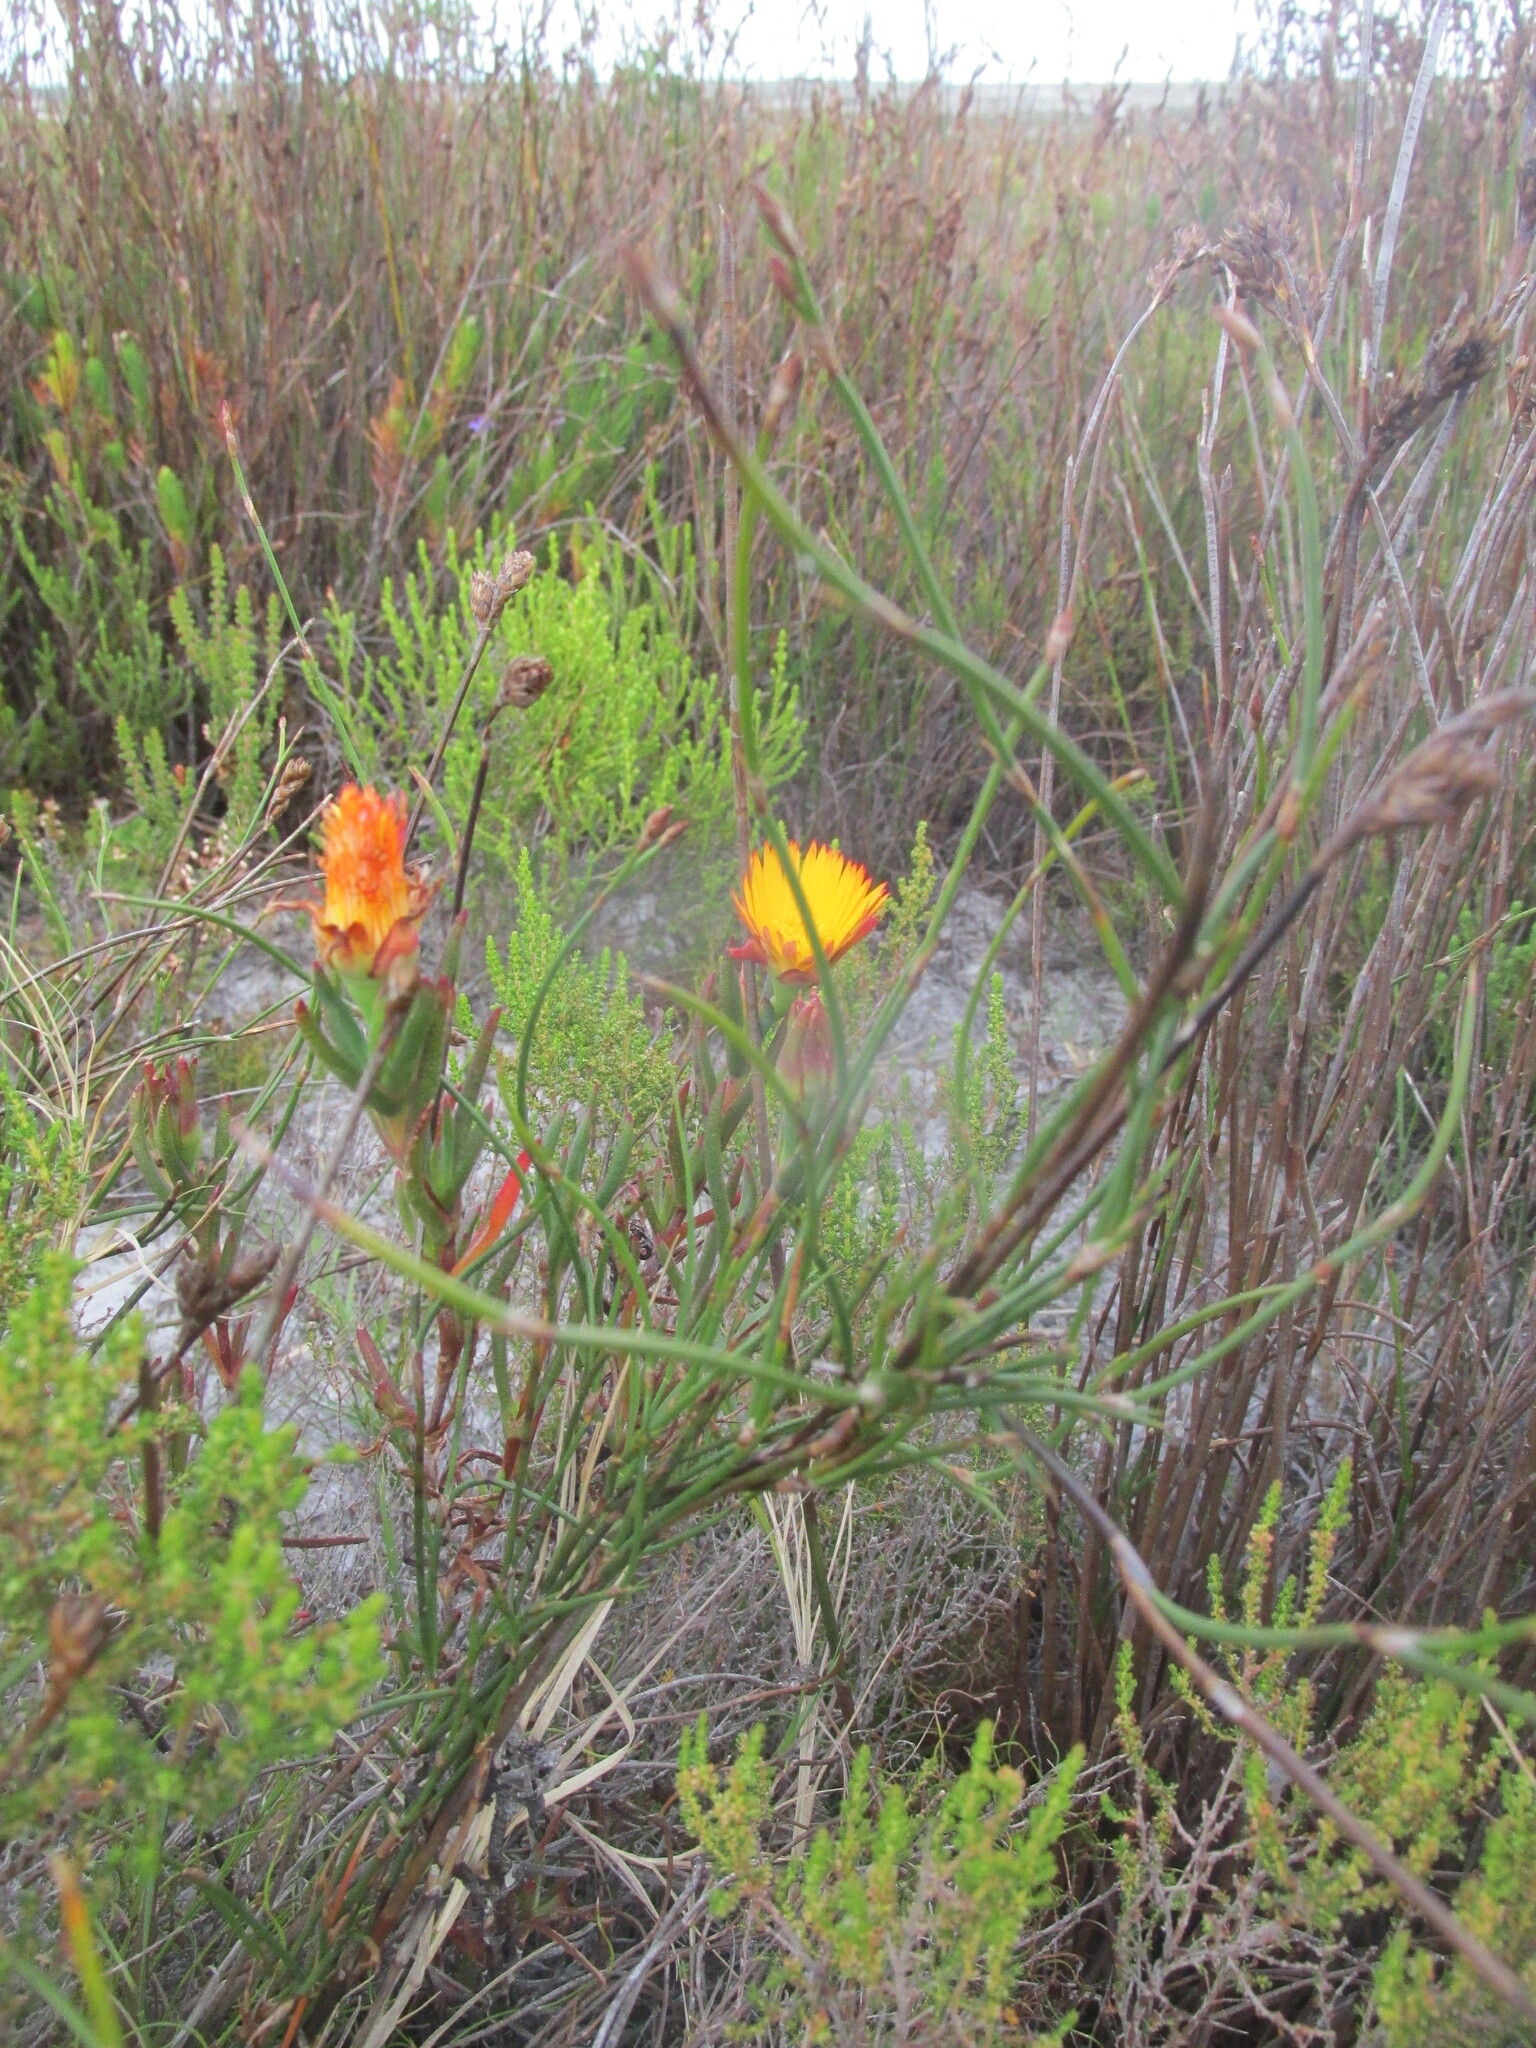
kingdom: Plantae
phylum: Tracheophyta
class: Magnoliopsida
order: Caryophyllales
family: Aizoaceae
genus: Lampranthus
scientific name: Lampranthus bicolor
